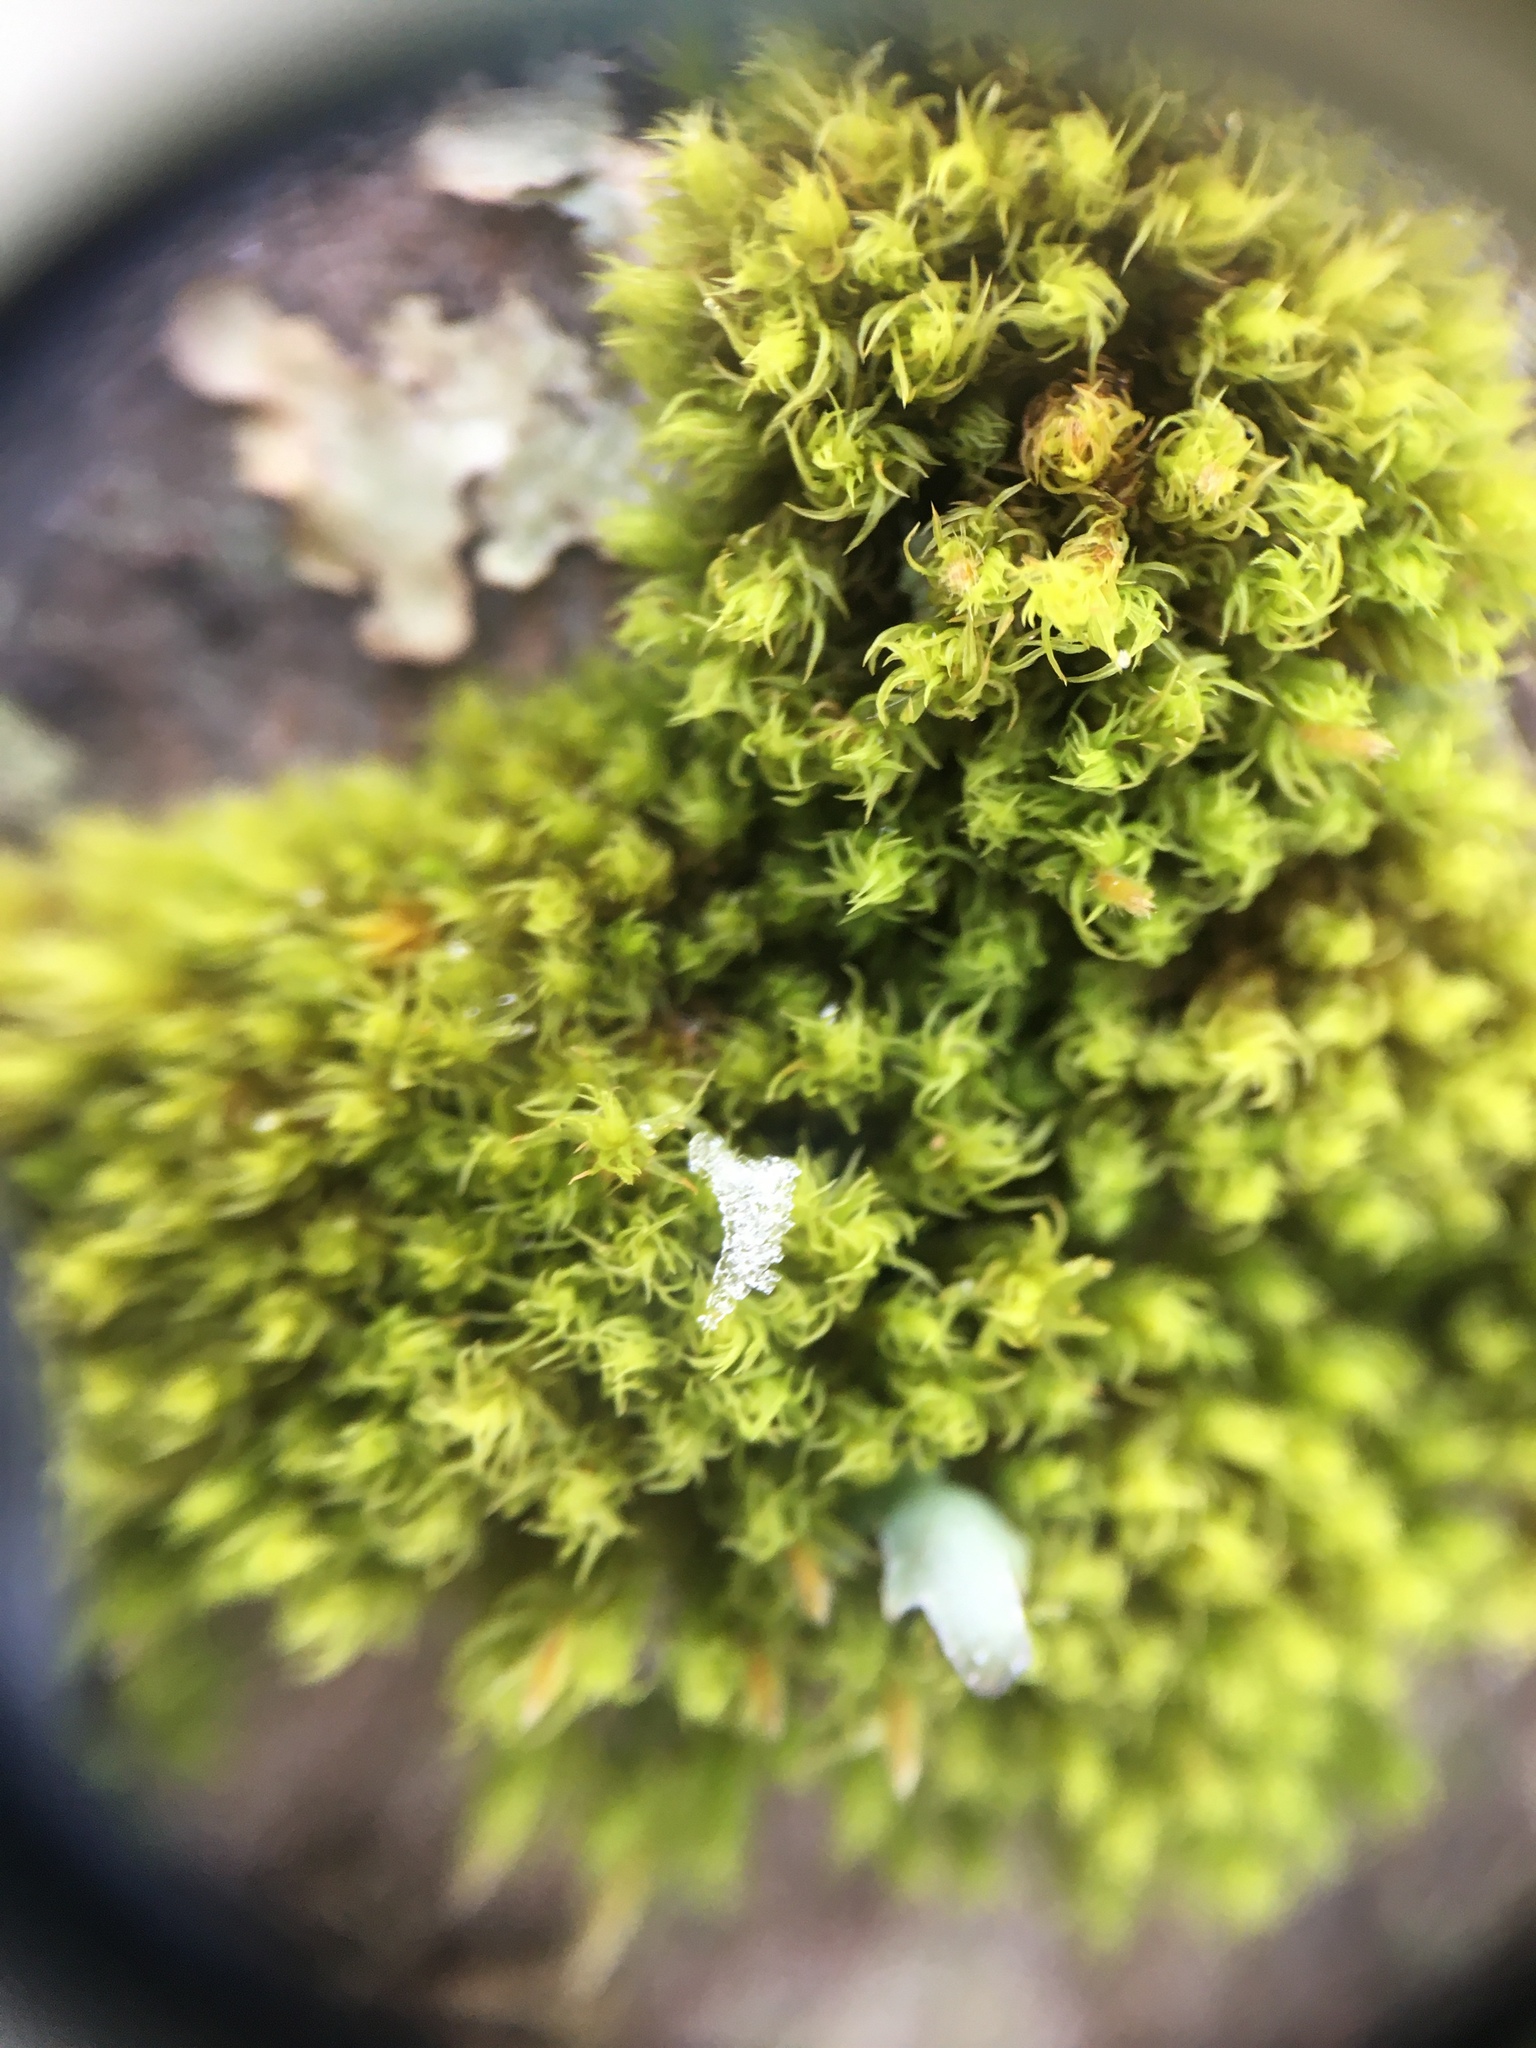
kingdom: Plantae
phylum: Bryophyta
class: Bryopsida
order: Orthotrichales
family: Orthotrichaceae
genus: Ulota
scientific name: Ulota crispa
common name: Crisped pincushion moss
